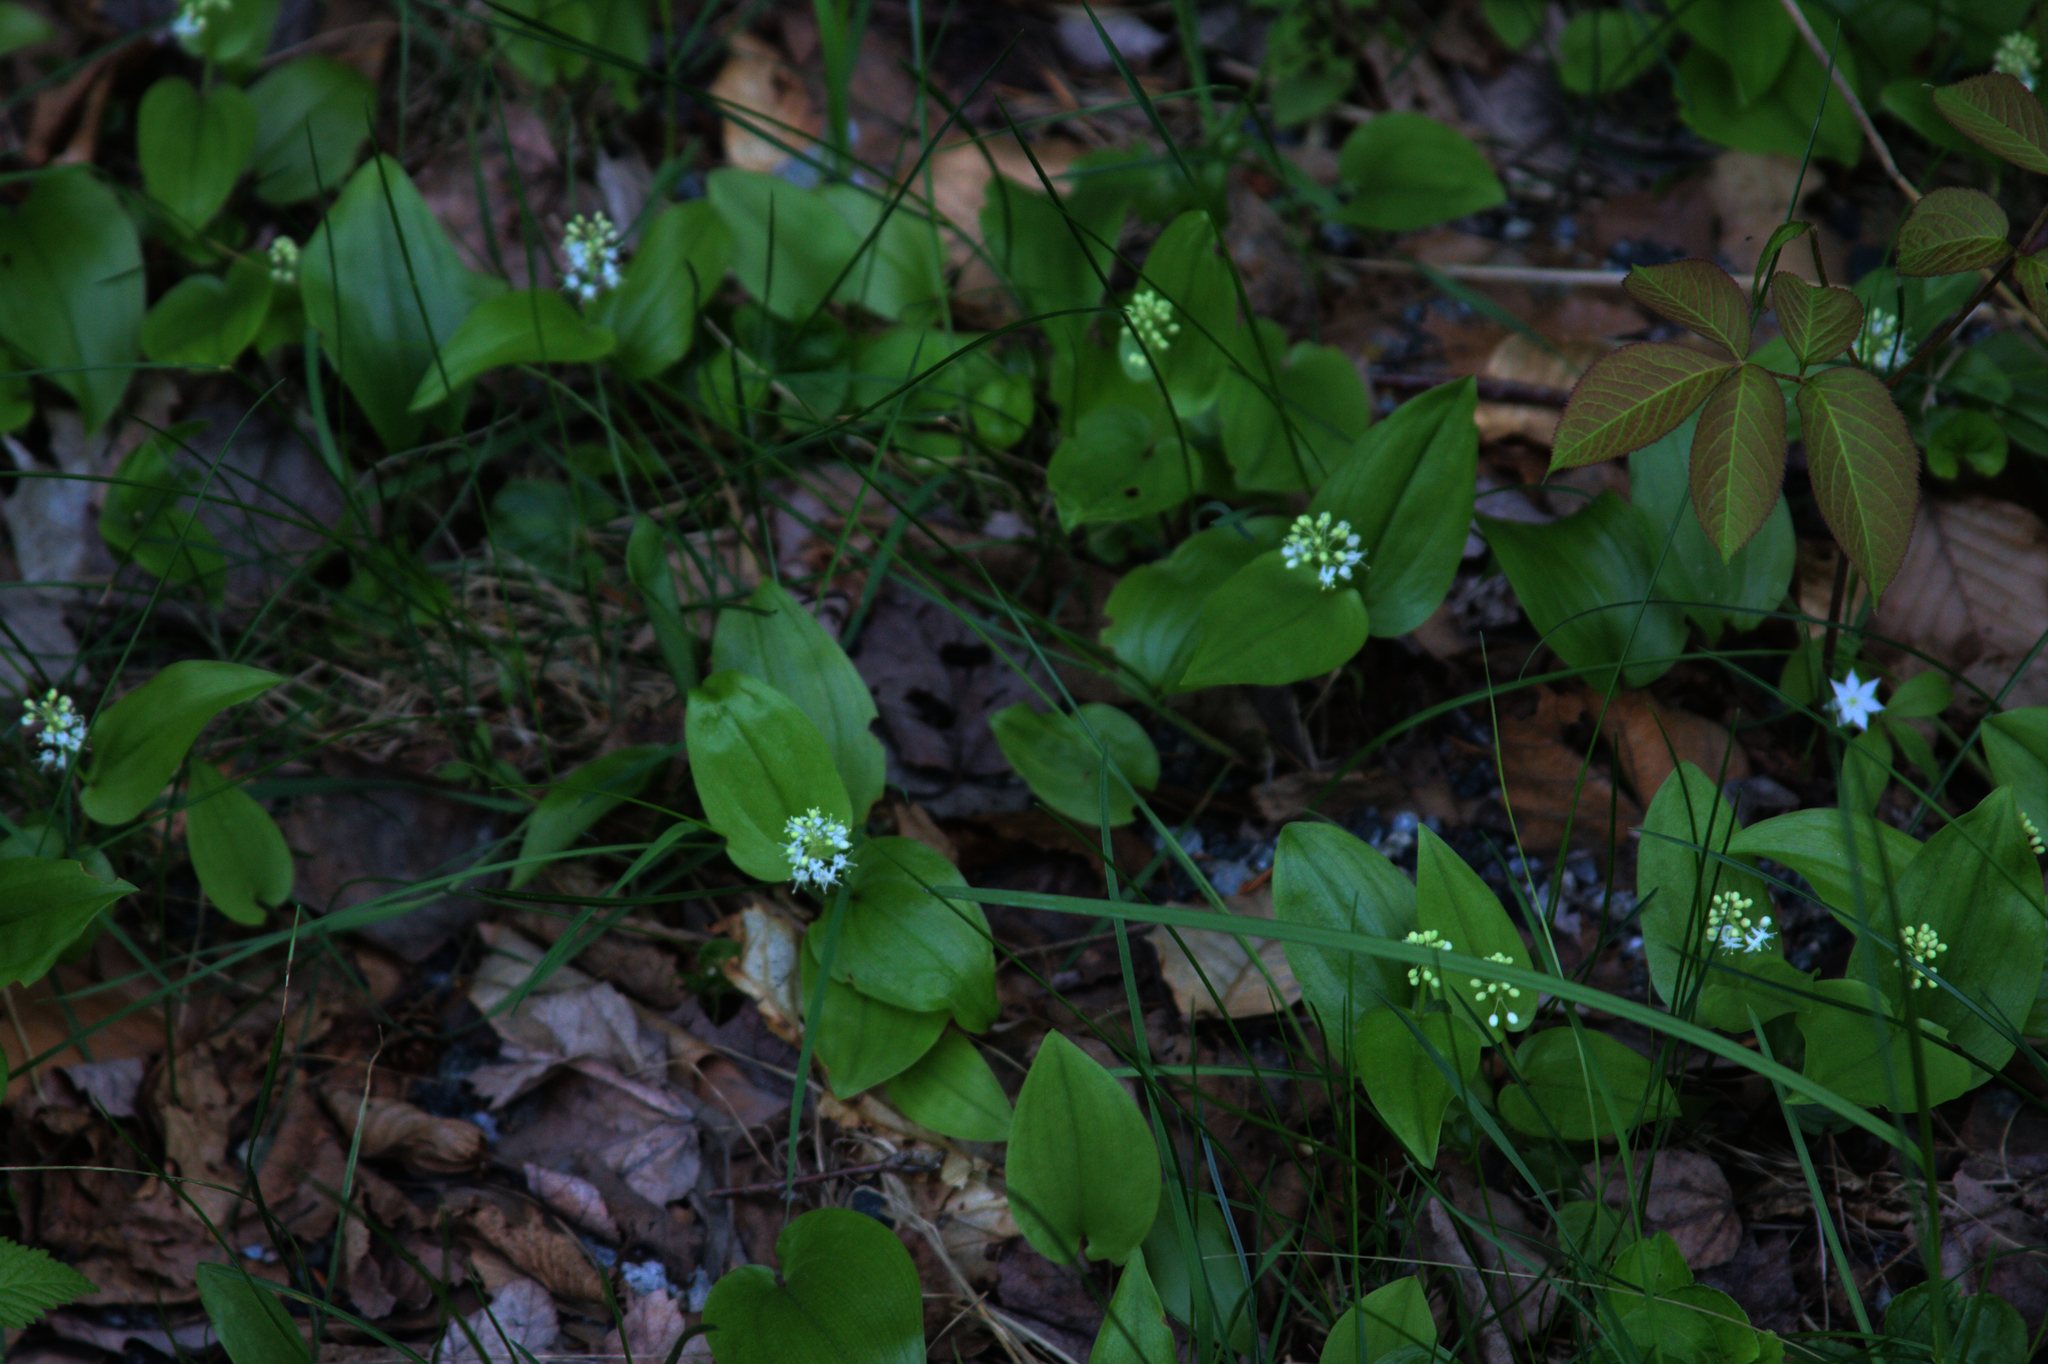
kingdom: Plantae
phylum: Tracheophyta
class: Liliopsida
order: Asparagales
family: Asparagaceae
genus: Maianthemum
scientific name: Maianthemum canadense
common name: False lily-of-the-valley
